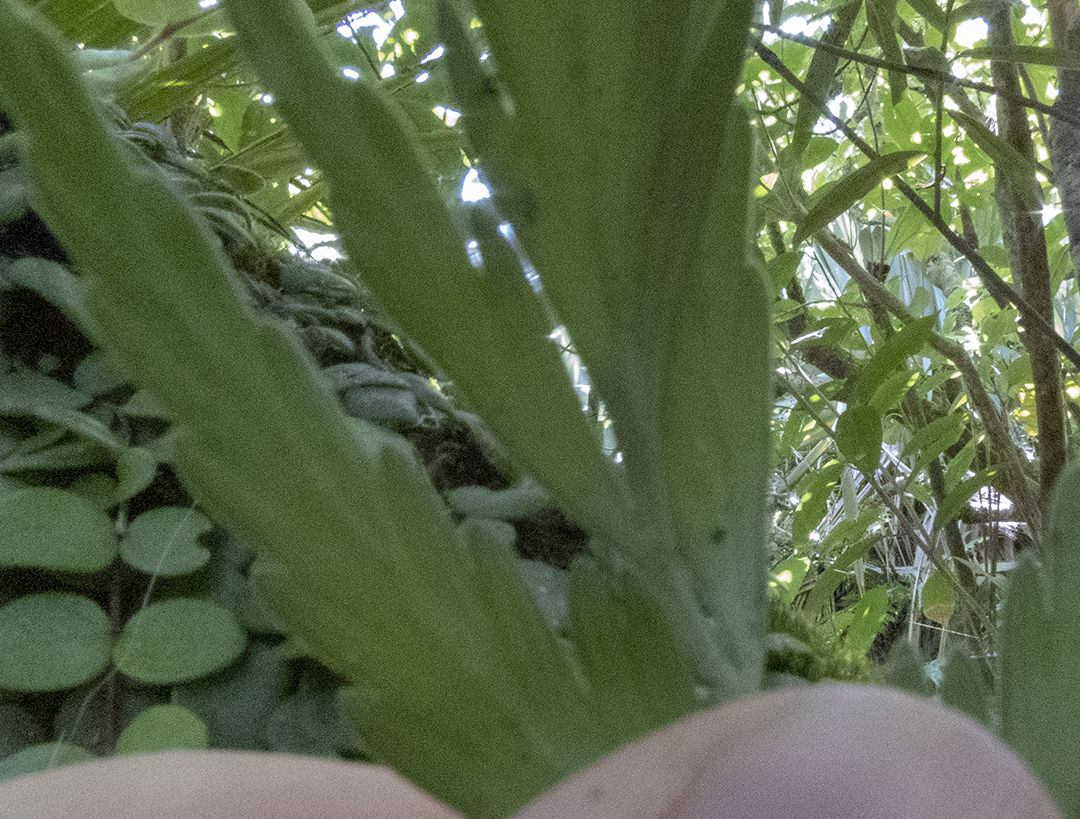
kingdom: Plantae
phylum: Tracheophyta
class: Polypodiopsida
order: Polypodiales
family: Aspleniaceae
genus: Asplenium
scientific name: Asplenium flaccidum
